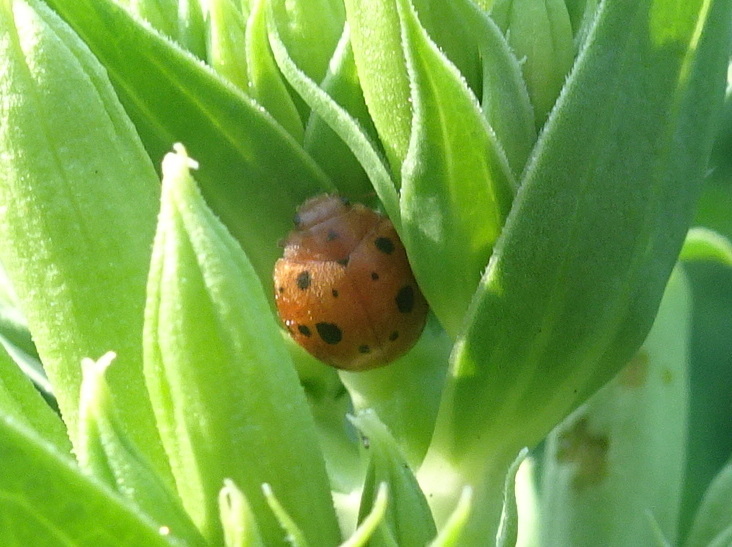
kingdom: Animalia
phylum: Arthropoda
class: Insecta
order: Coleoptera
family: Coccinellidae
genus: Subcoccinella
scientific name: Subcoccinella vigintiquatuorpunctata
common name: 24-spot ladybird
